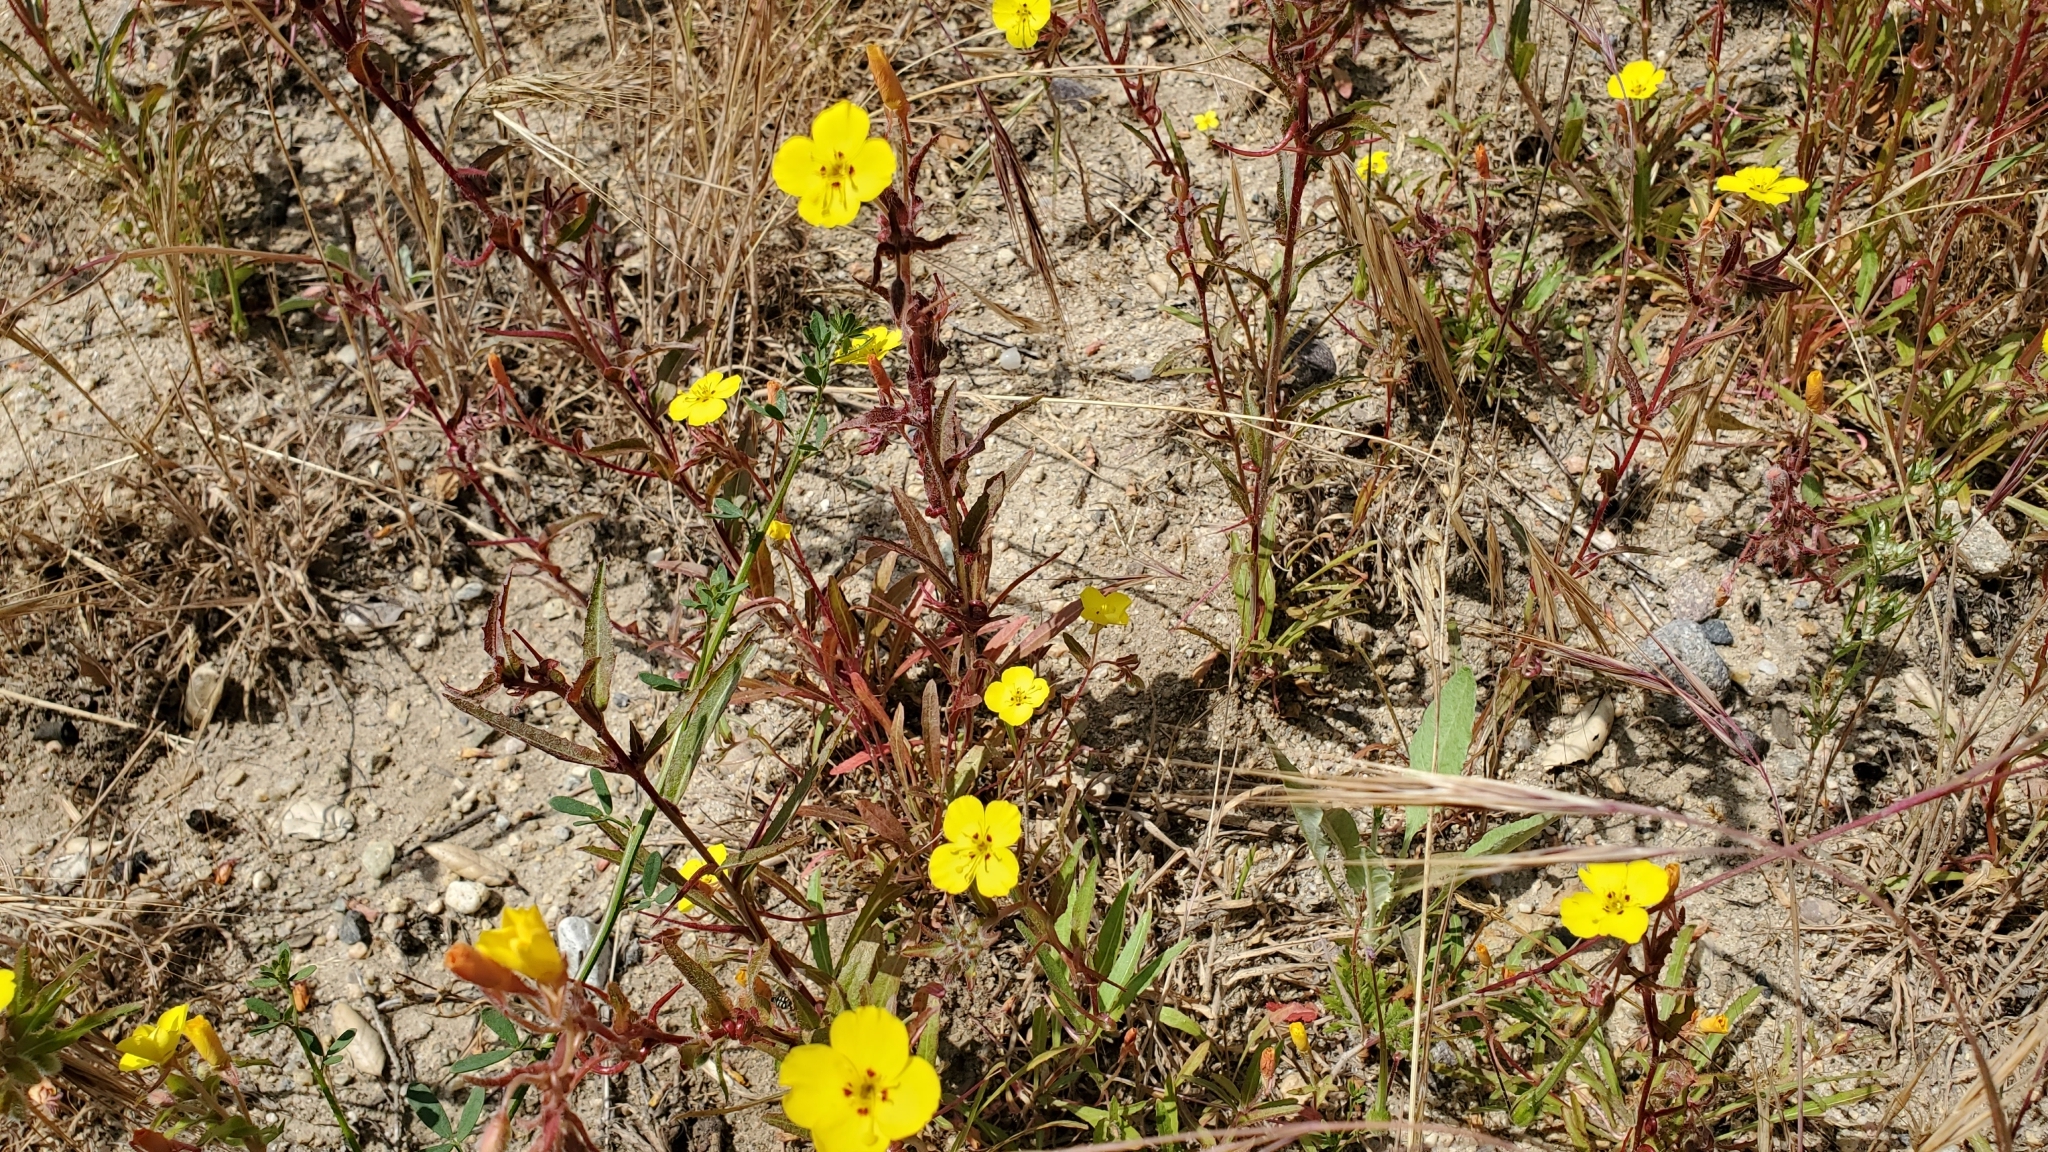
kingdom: Plantae
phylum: Tracheophyta
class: Magnoliopsida
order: Myrtales
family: Onagraceae
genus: Camissoniopsis
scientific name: Camissoniopsis bistorta
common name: Southern suncup
